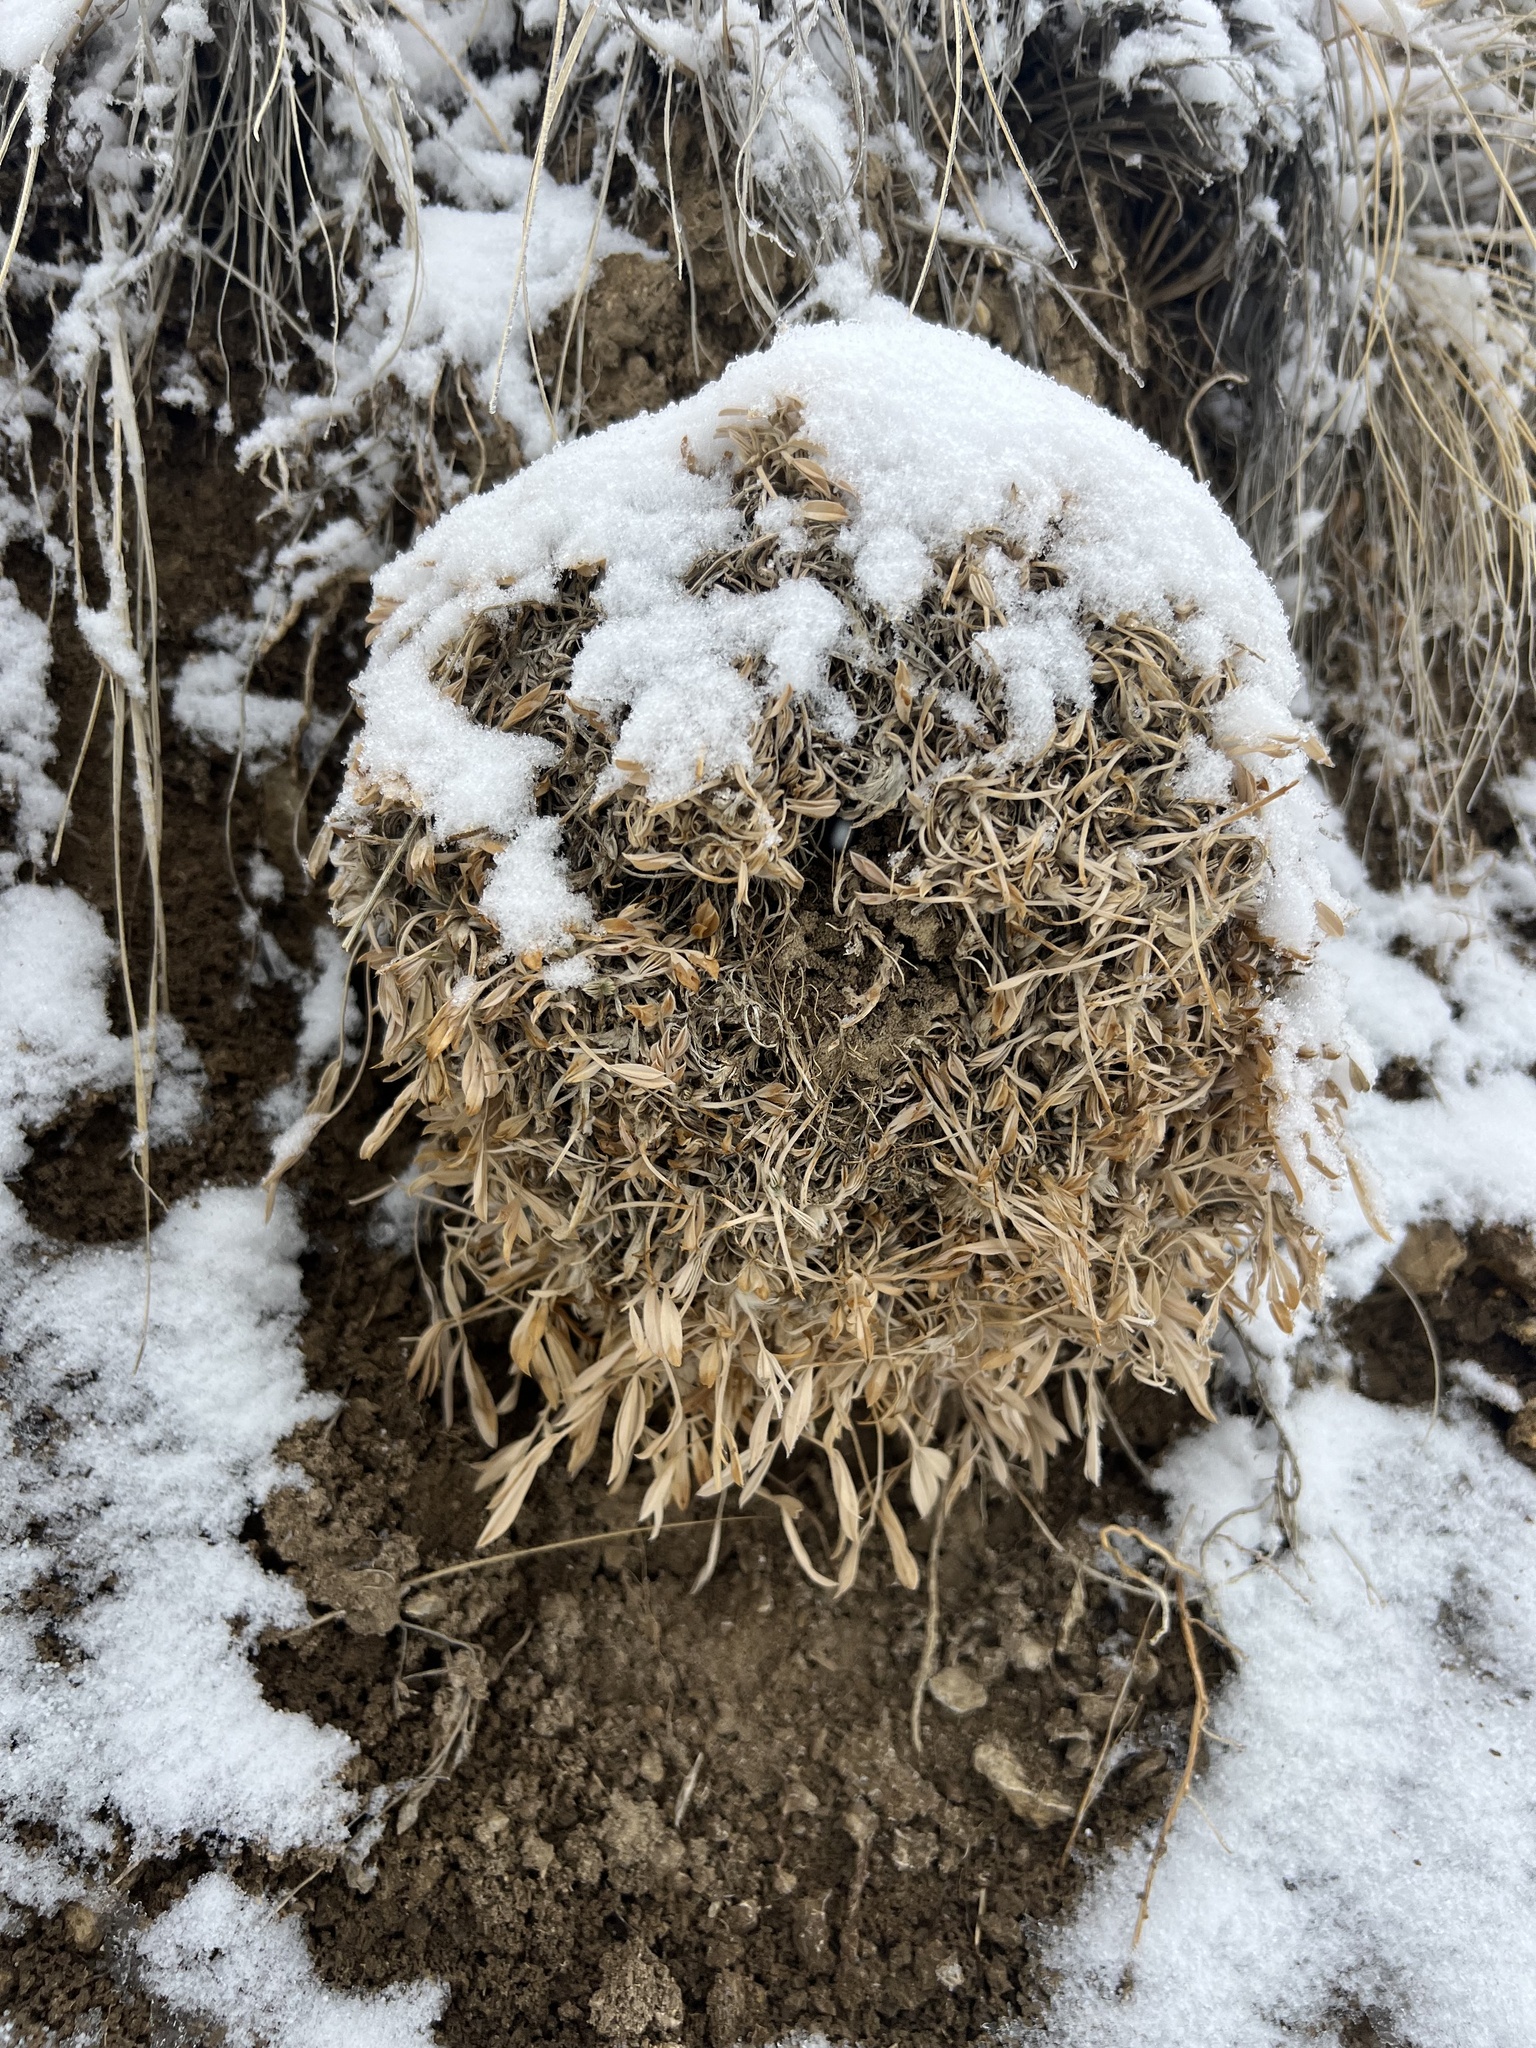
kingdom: Plantae
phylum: Tracheophyta
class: Magnoliopsida
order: Fabales
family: Fabaceae
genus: Astragalus
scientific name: Astragalus tridactylicus
